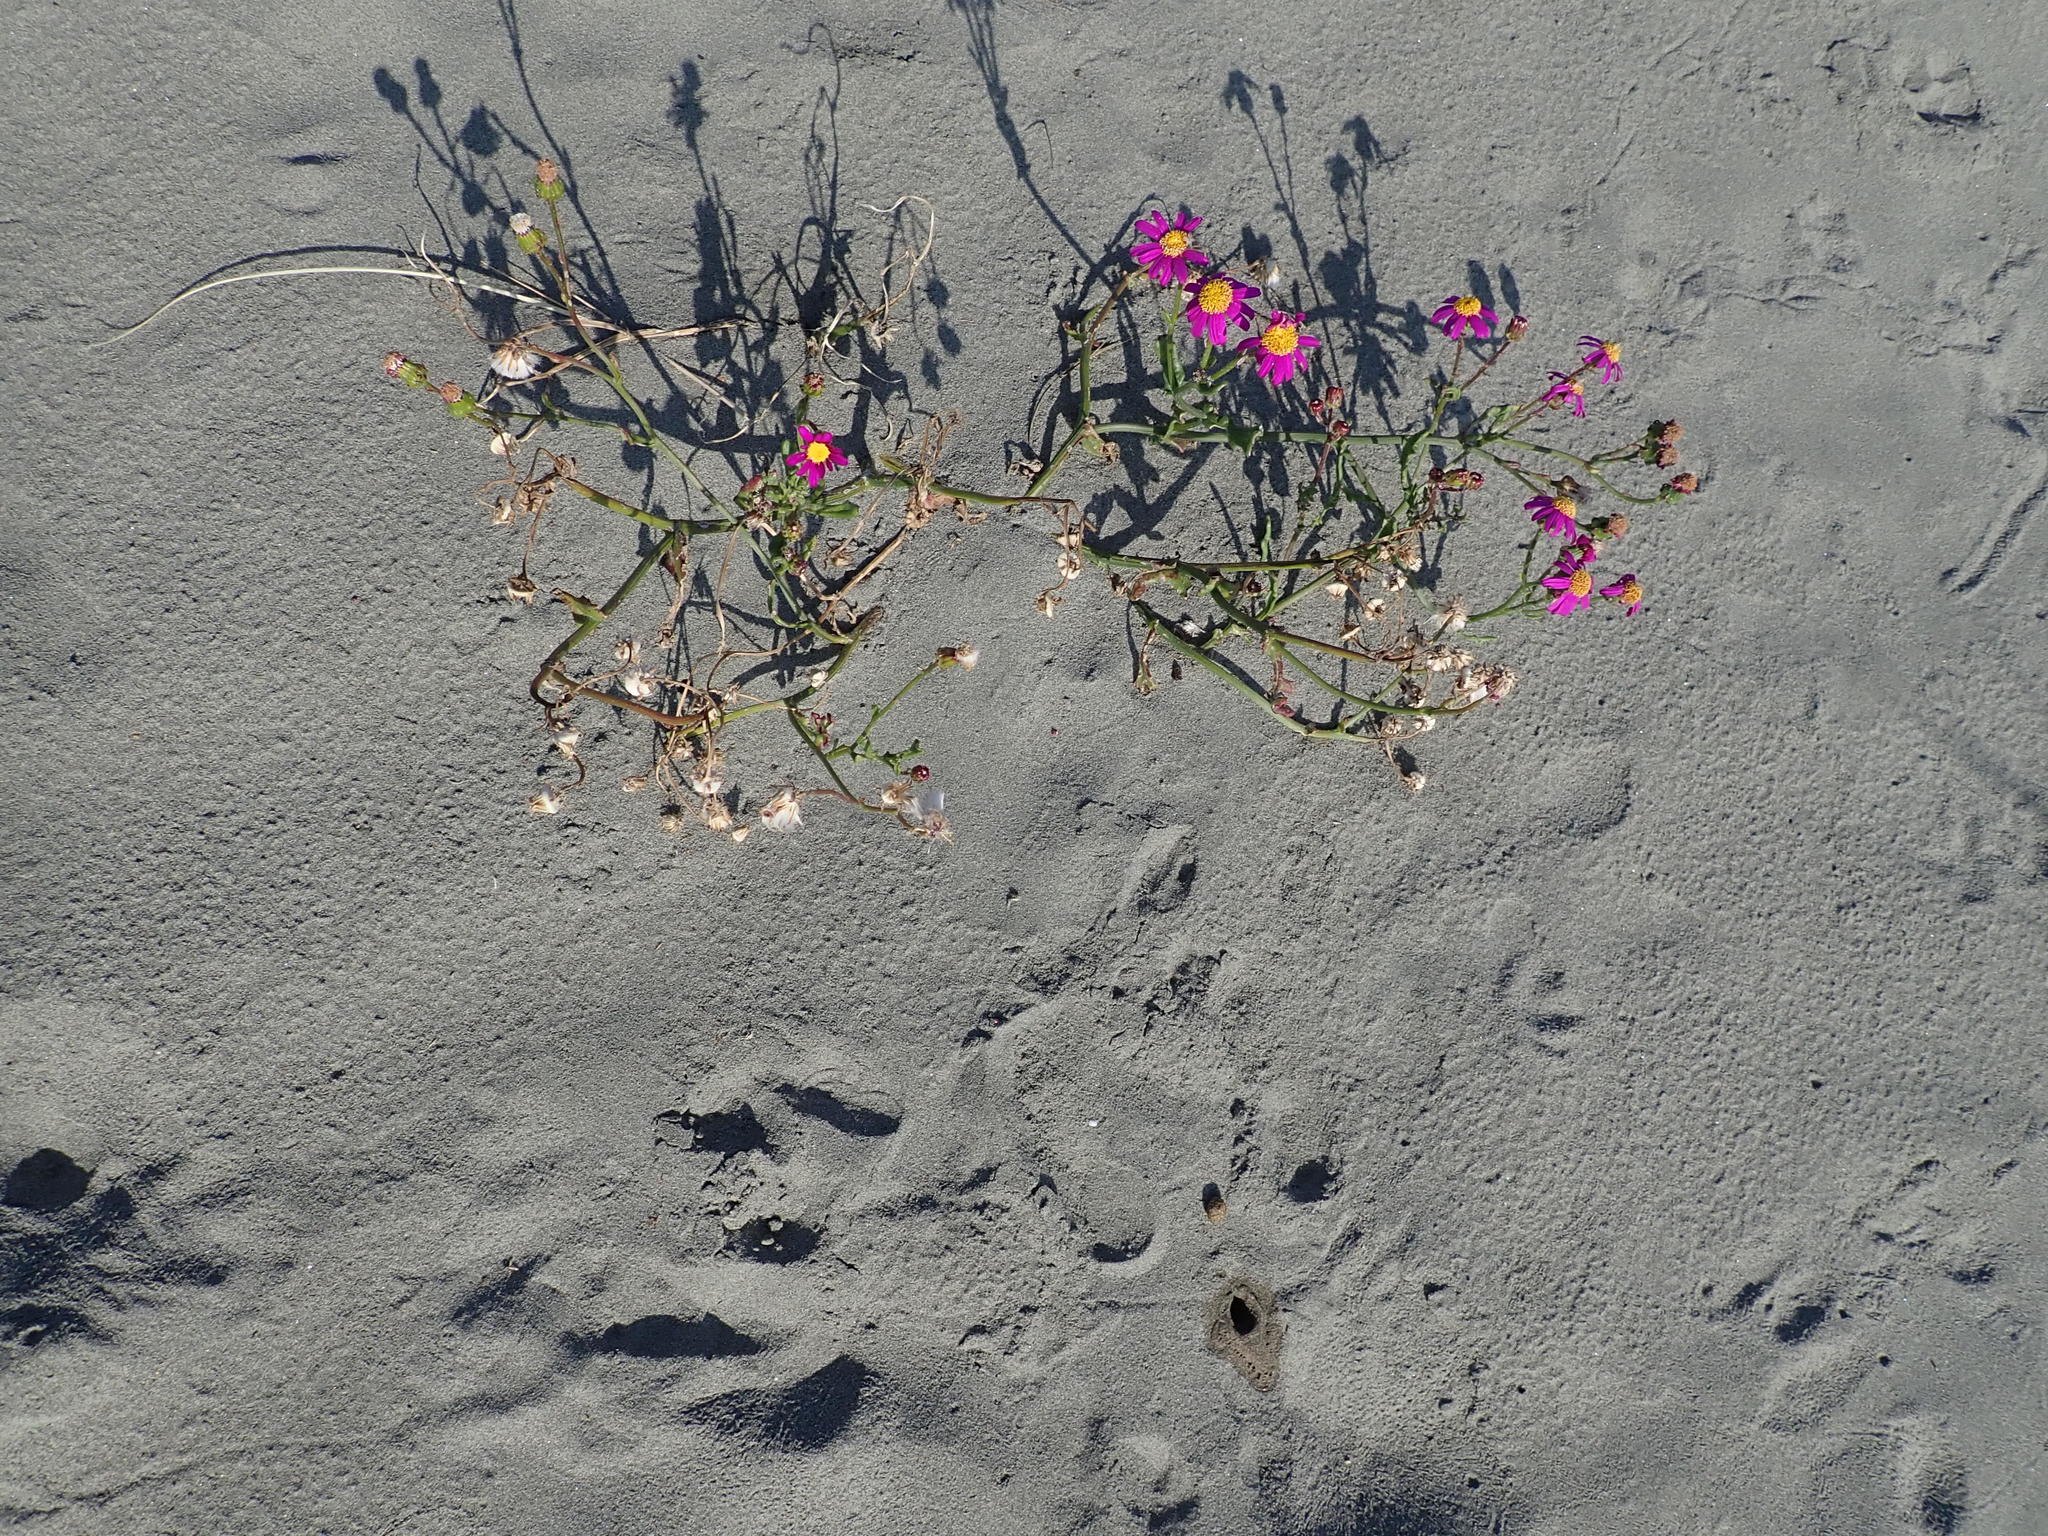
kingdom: Plantae
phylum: Tracheophyta
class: Magnoliopsida
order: Asterales
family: Asteraceae
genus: Senecio
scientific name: Senecio elegans
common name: Purple groundsel
